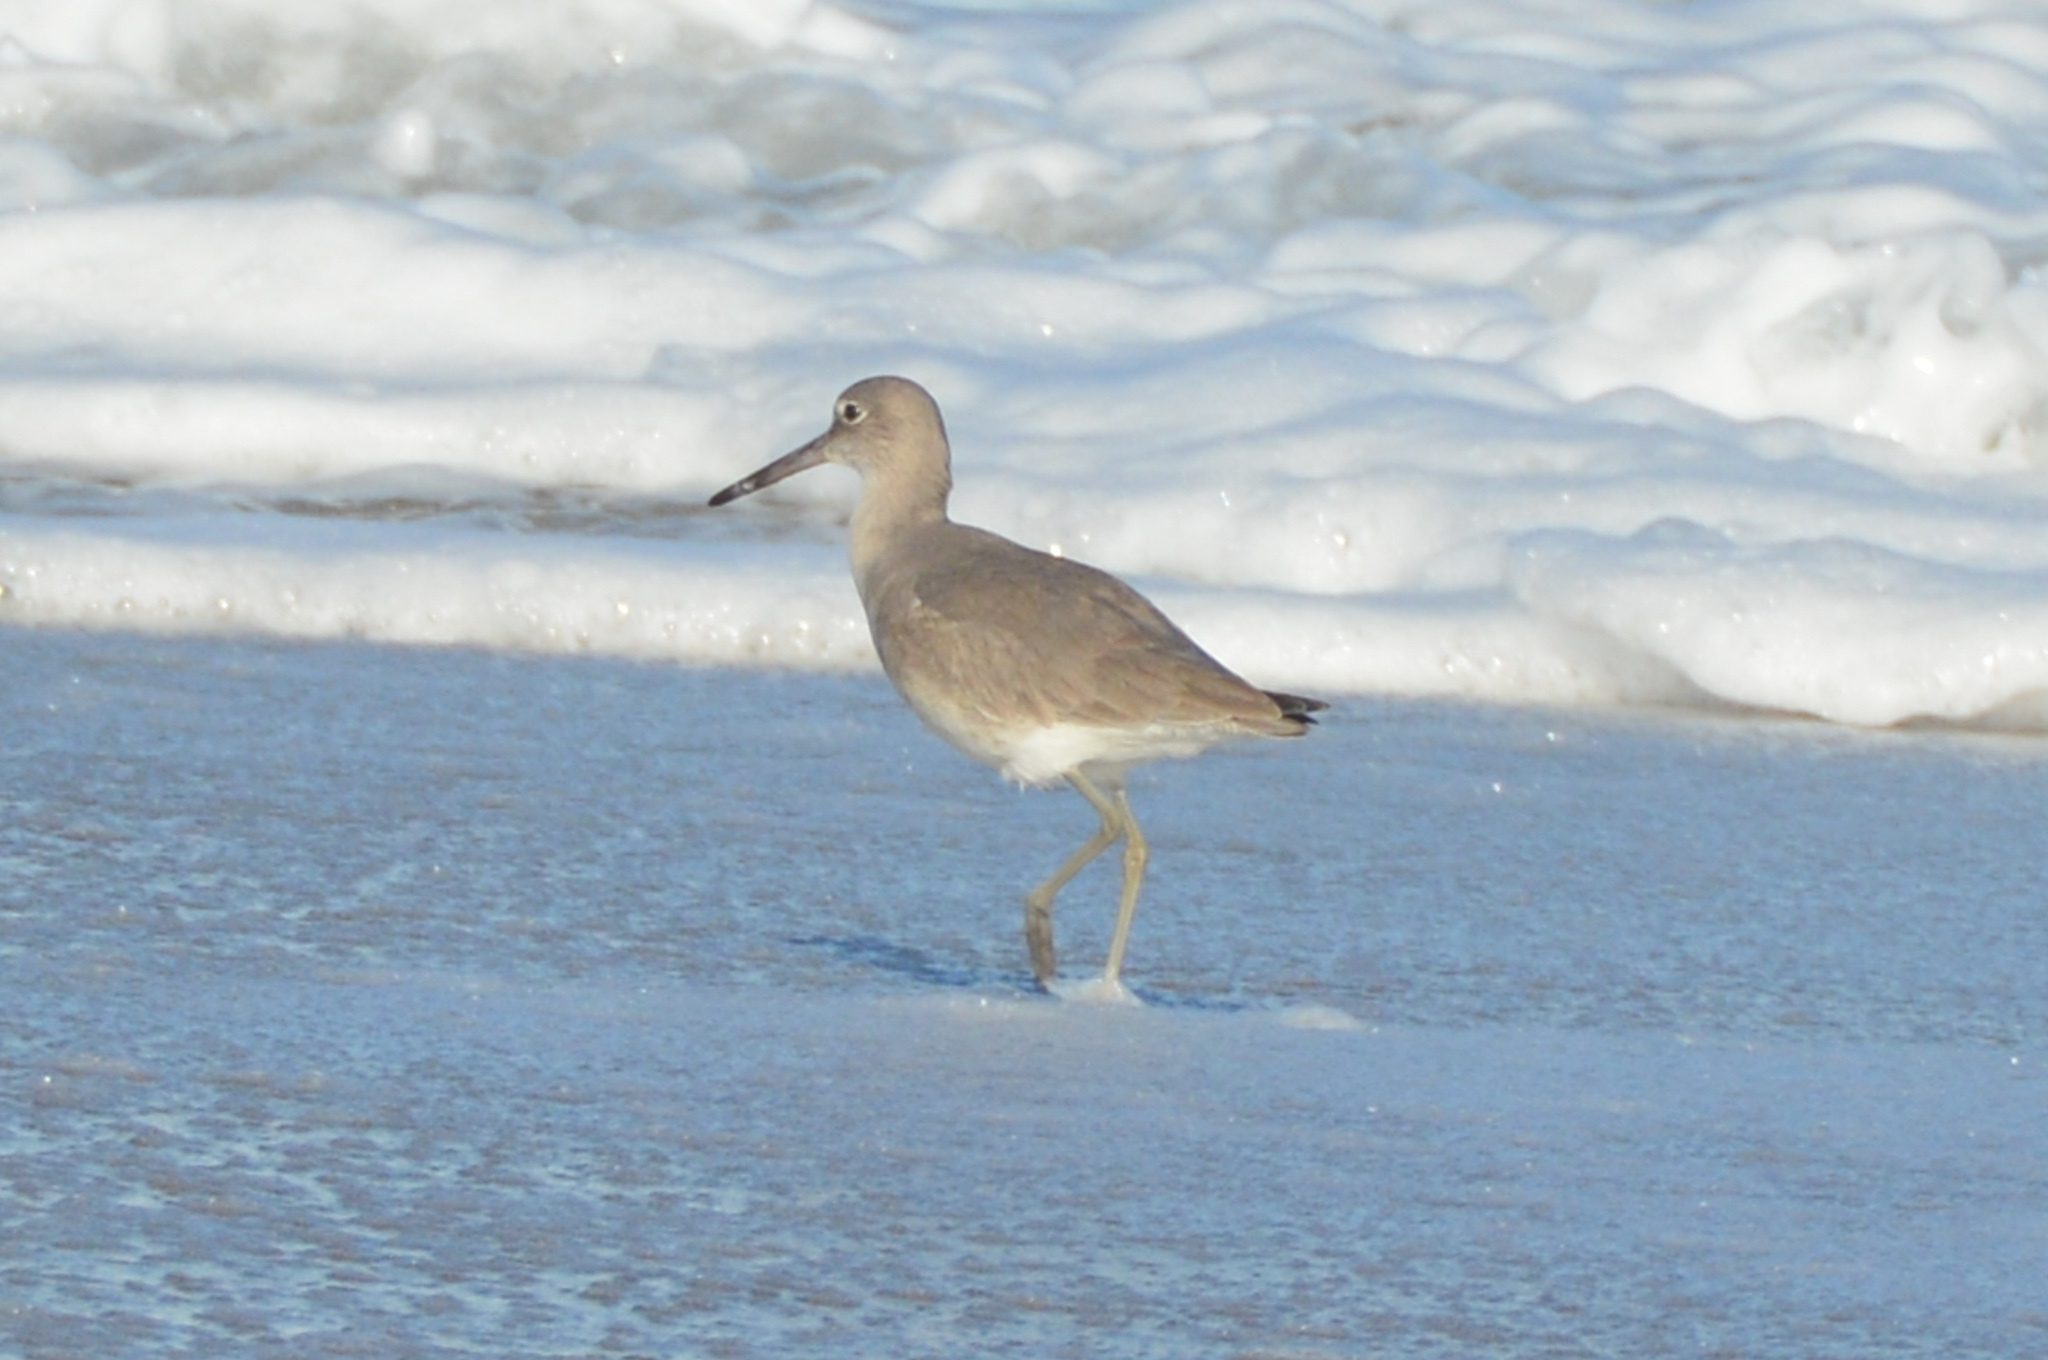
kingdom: Animalia
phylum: Chordata
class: Aves
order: Charadriiformes
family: Scolopacidae
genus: Tringa
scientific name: Tringa semipalmata
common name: Willet
